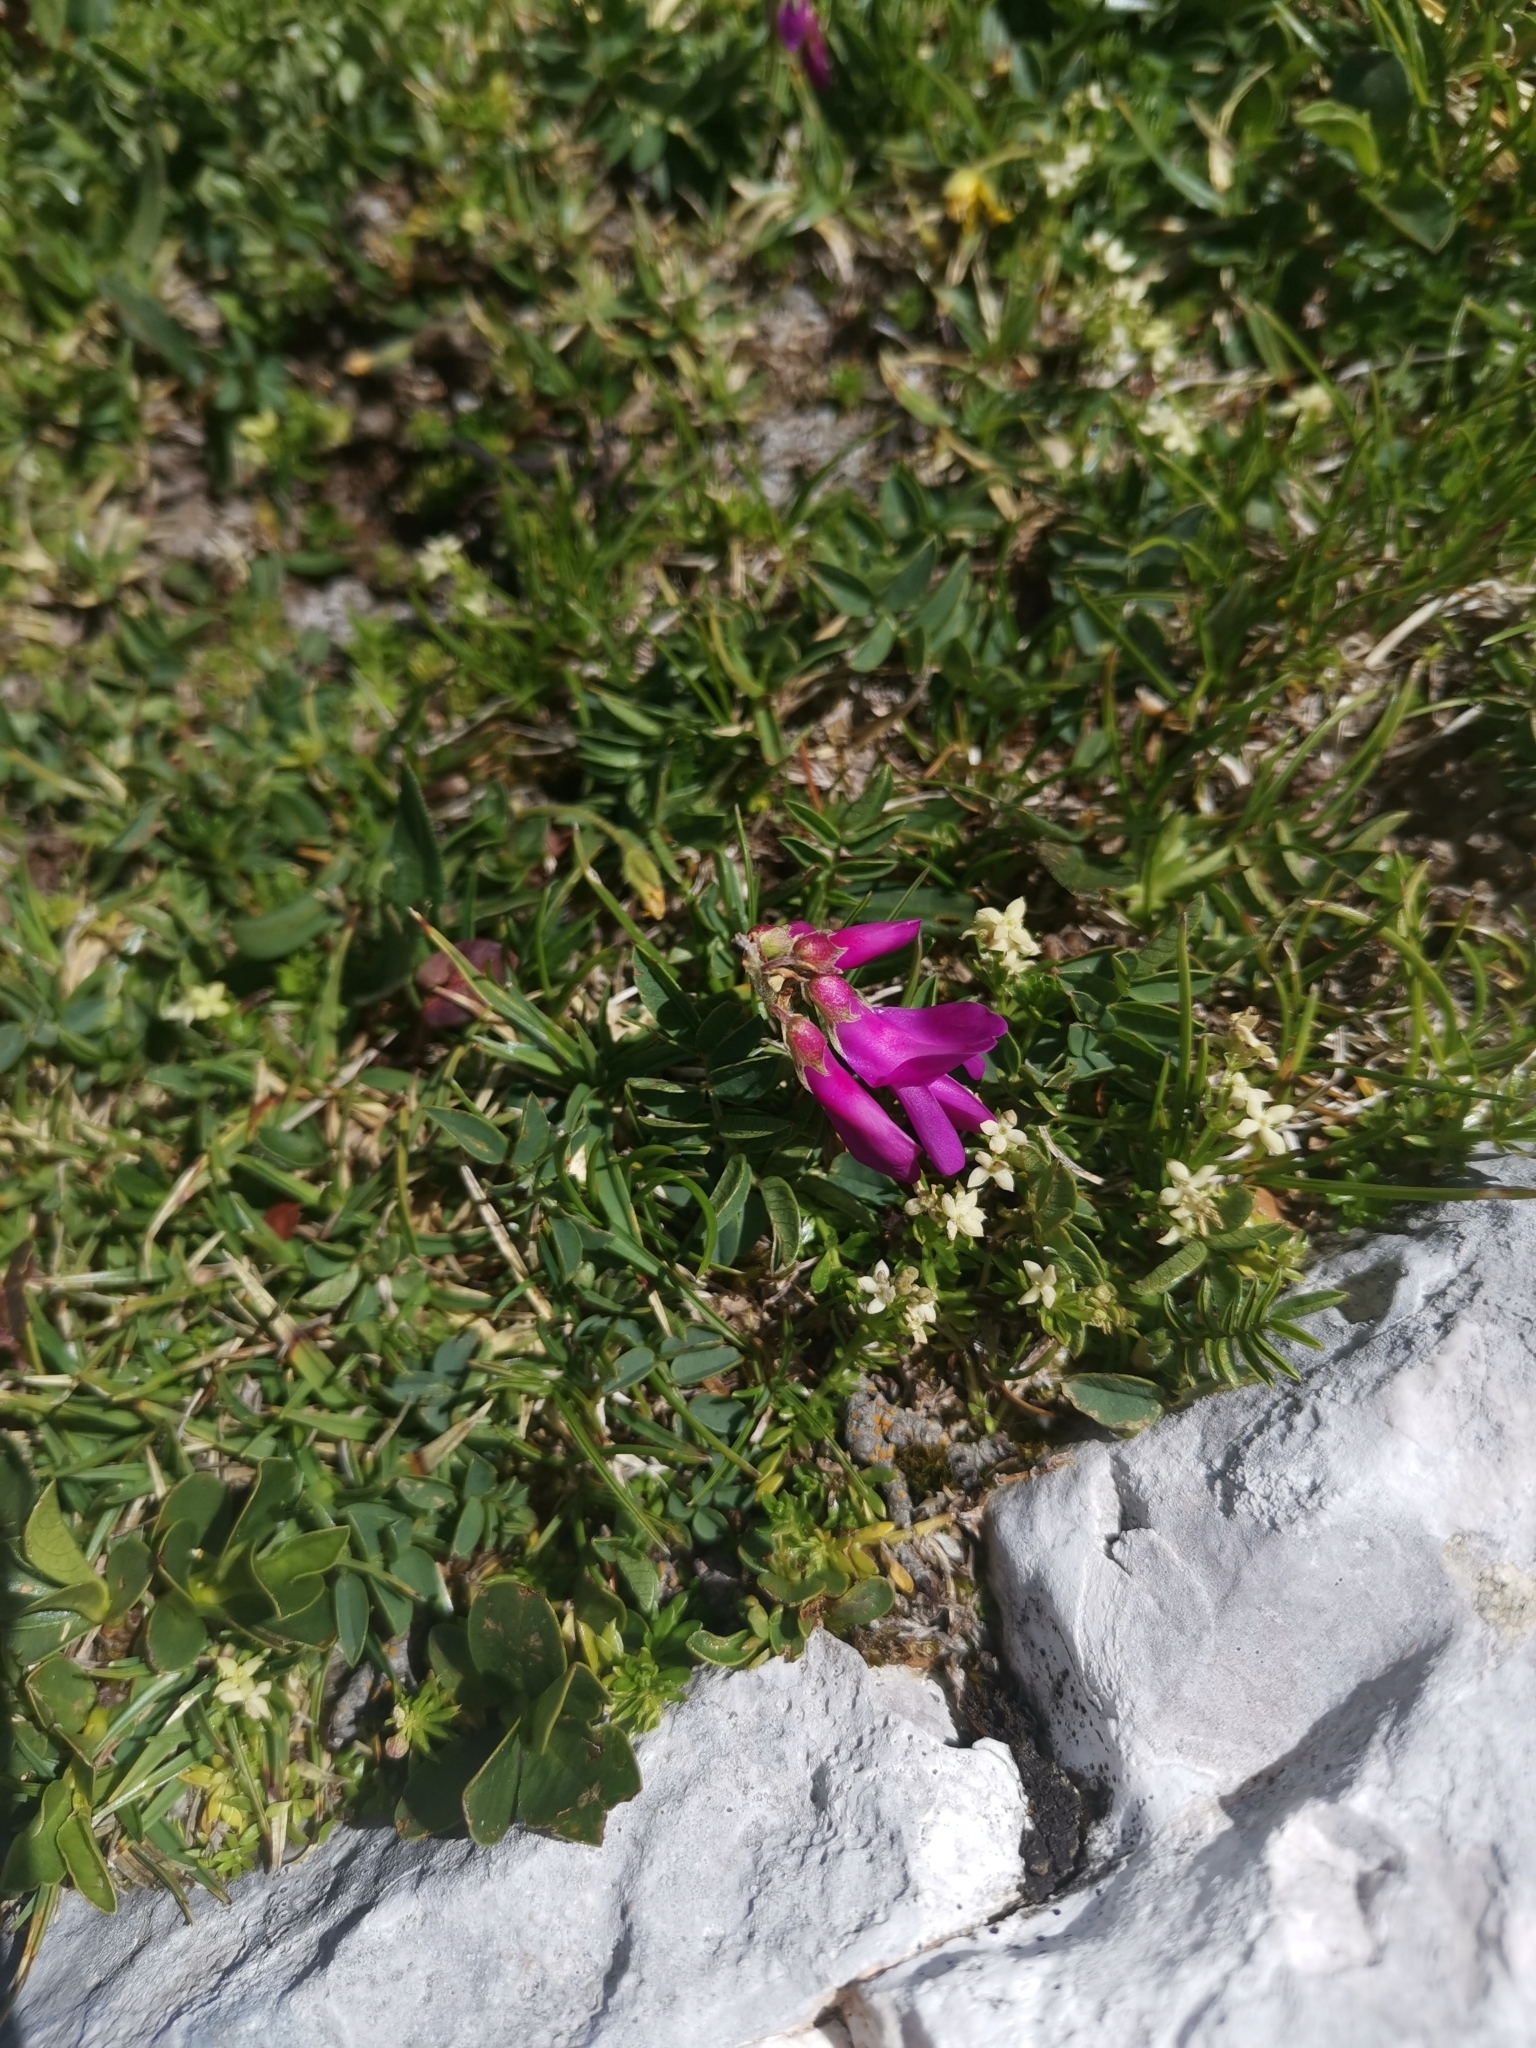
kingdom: Plantae
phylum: Tracheophyta
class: Magnoliopsida
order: Fabales
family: Fabaceae
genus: Hedysarum
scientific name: Hedysarum hedysaroides
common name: Alpine french-honeysuckle
